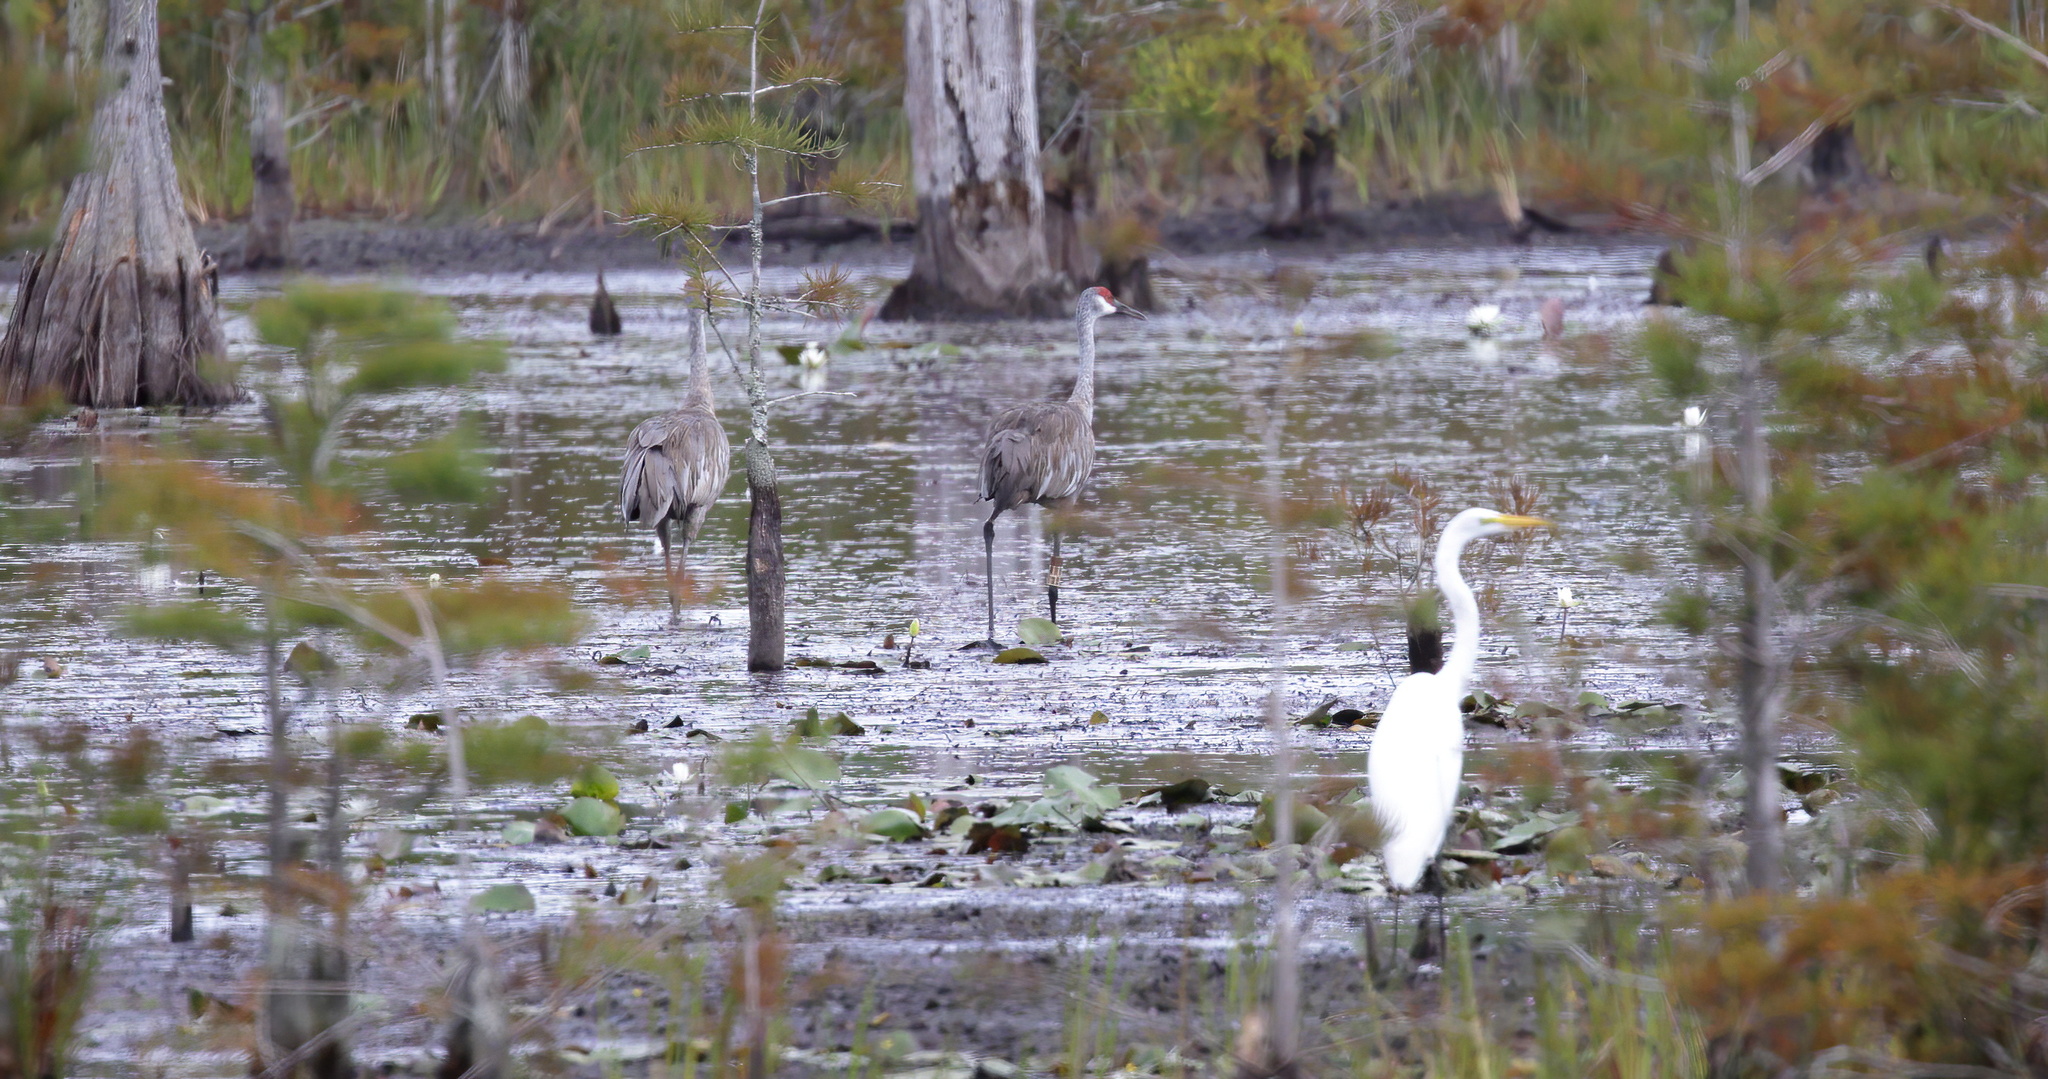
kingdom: Animalia
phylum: Chordata
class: Aves
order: Pelecaniformes
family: Ardeidae
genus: Ardea
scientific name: Ardea alba
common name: Great egret
